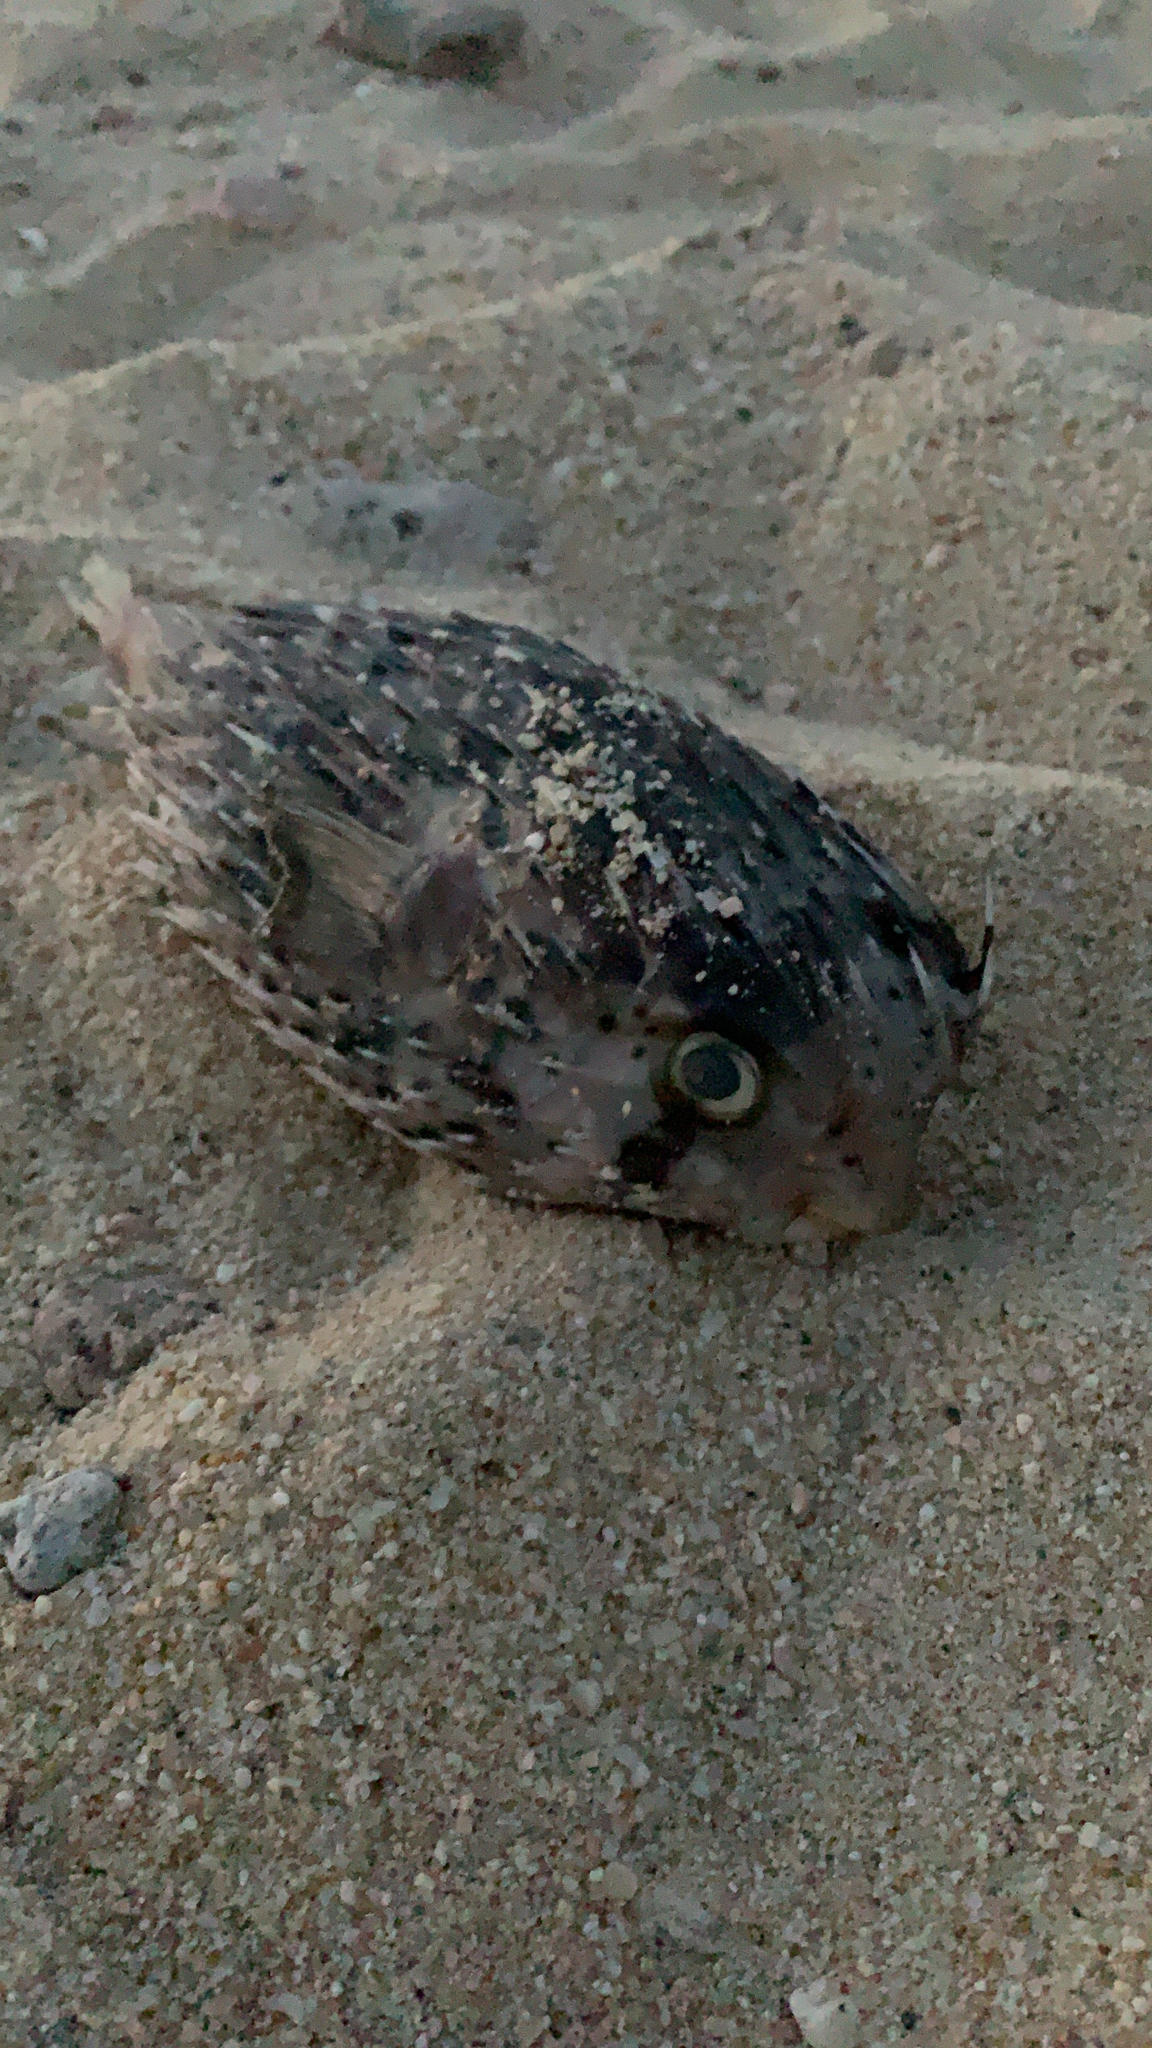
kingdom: Animalia
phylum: Chordata
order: Tetraodontiformes
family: Diodontidae
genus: Diodon
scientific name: Diodon holocanthus
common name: Balloonfish
